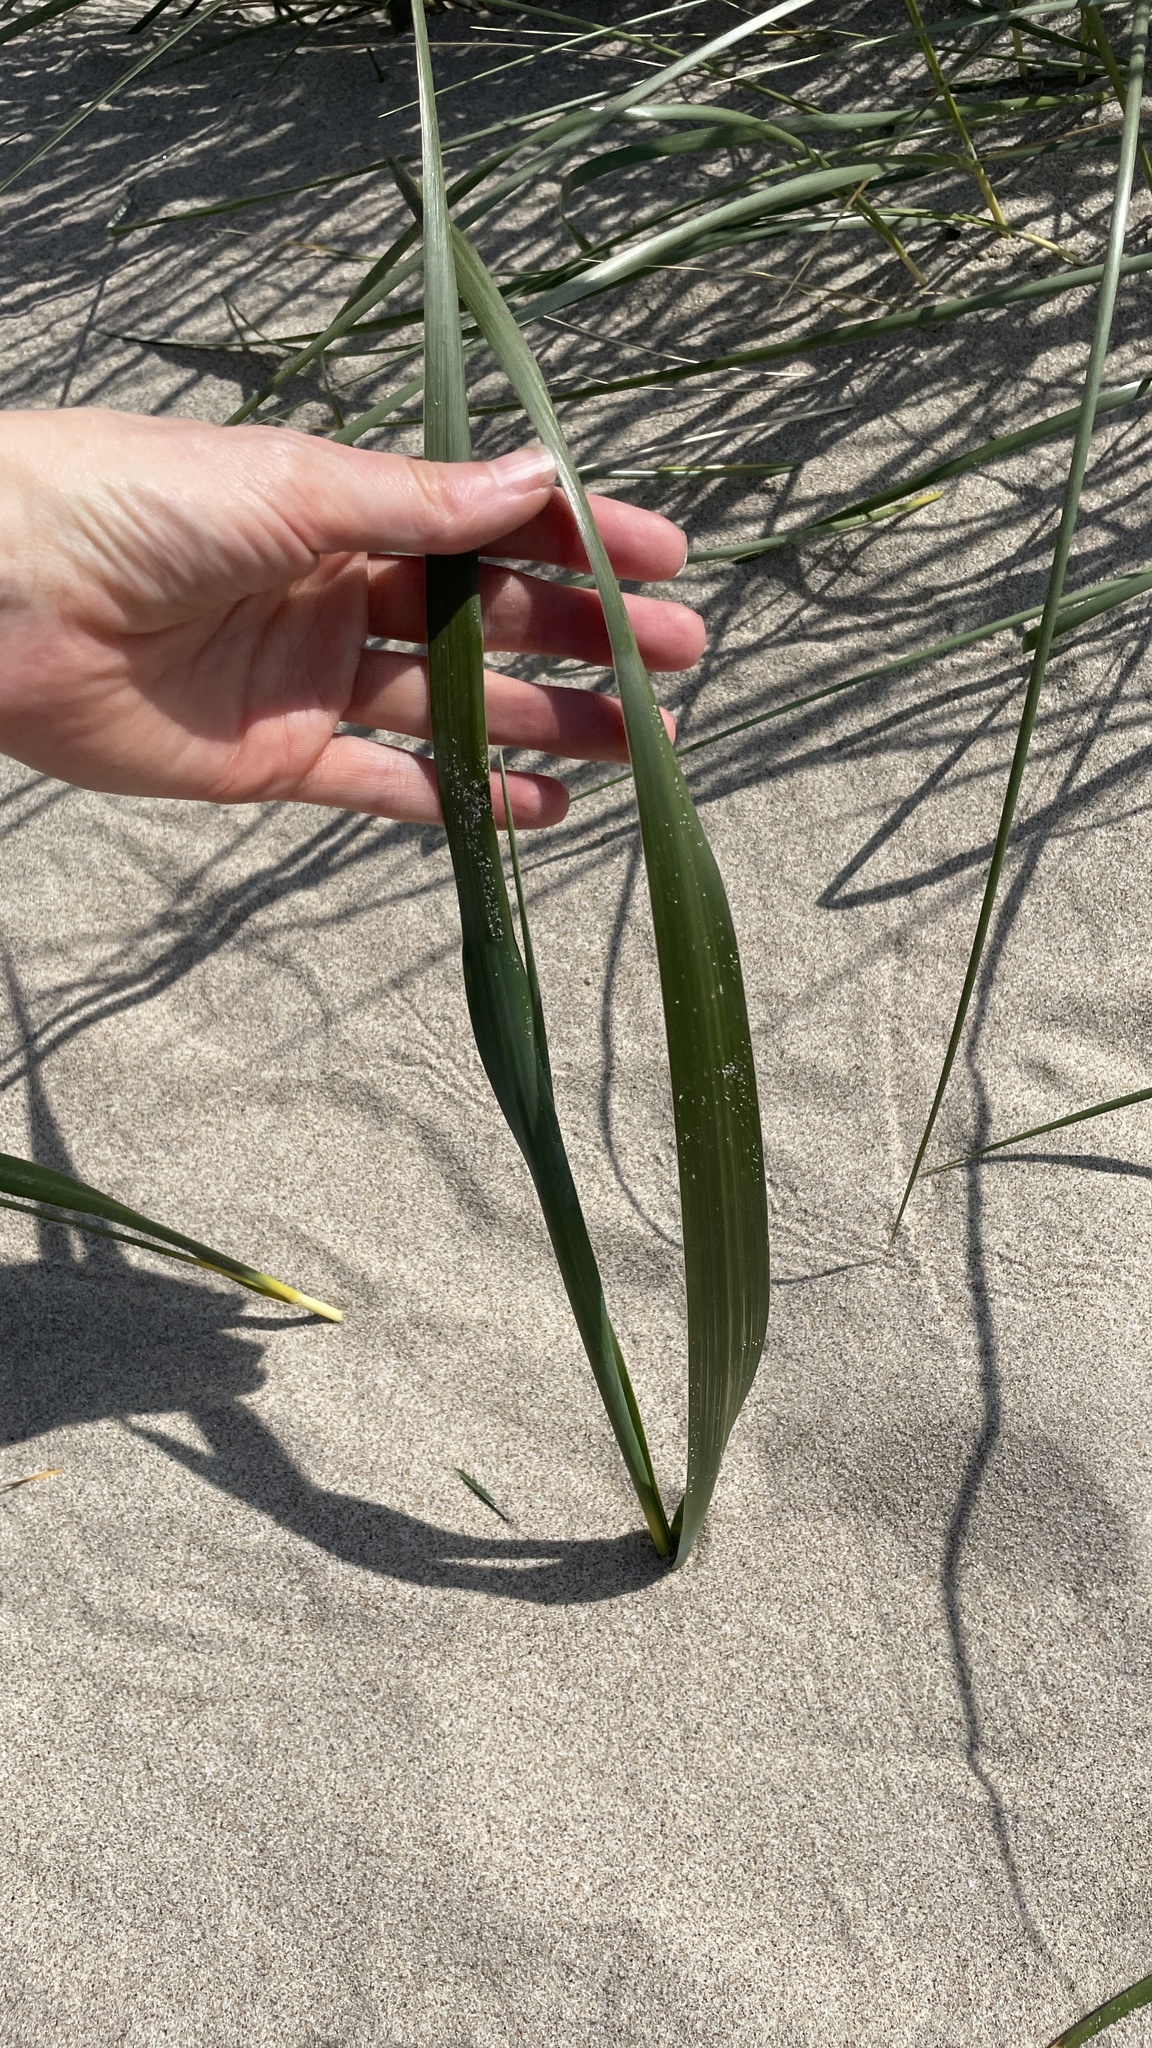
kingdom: Plantae
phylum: Tracheophyta
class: Liliopsida
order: Poales
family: Poaceae
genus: Leymus
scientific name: Leymus mollis
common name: American dune grass
